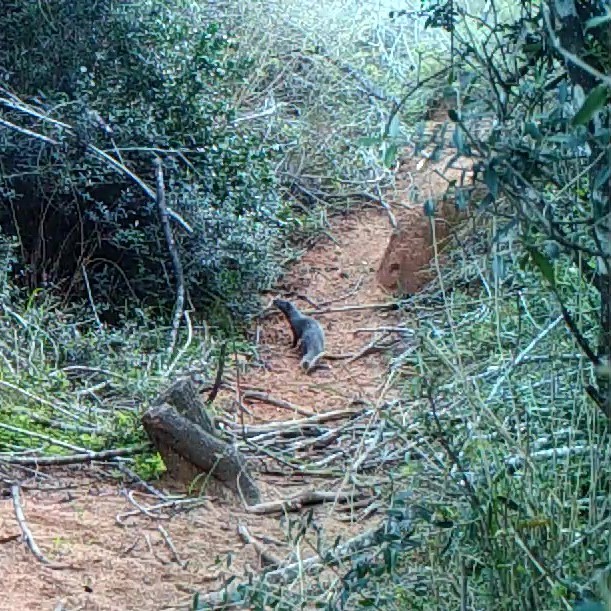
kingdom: Animalia
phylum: Chordata
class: Mammalia
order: Carnivora
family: Herpestidae
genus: Galerella
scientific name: Galerella pulverulenta
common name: Cape gray mongoose
